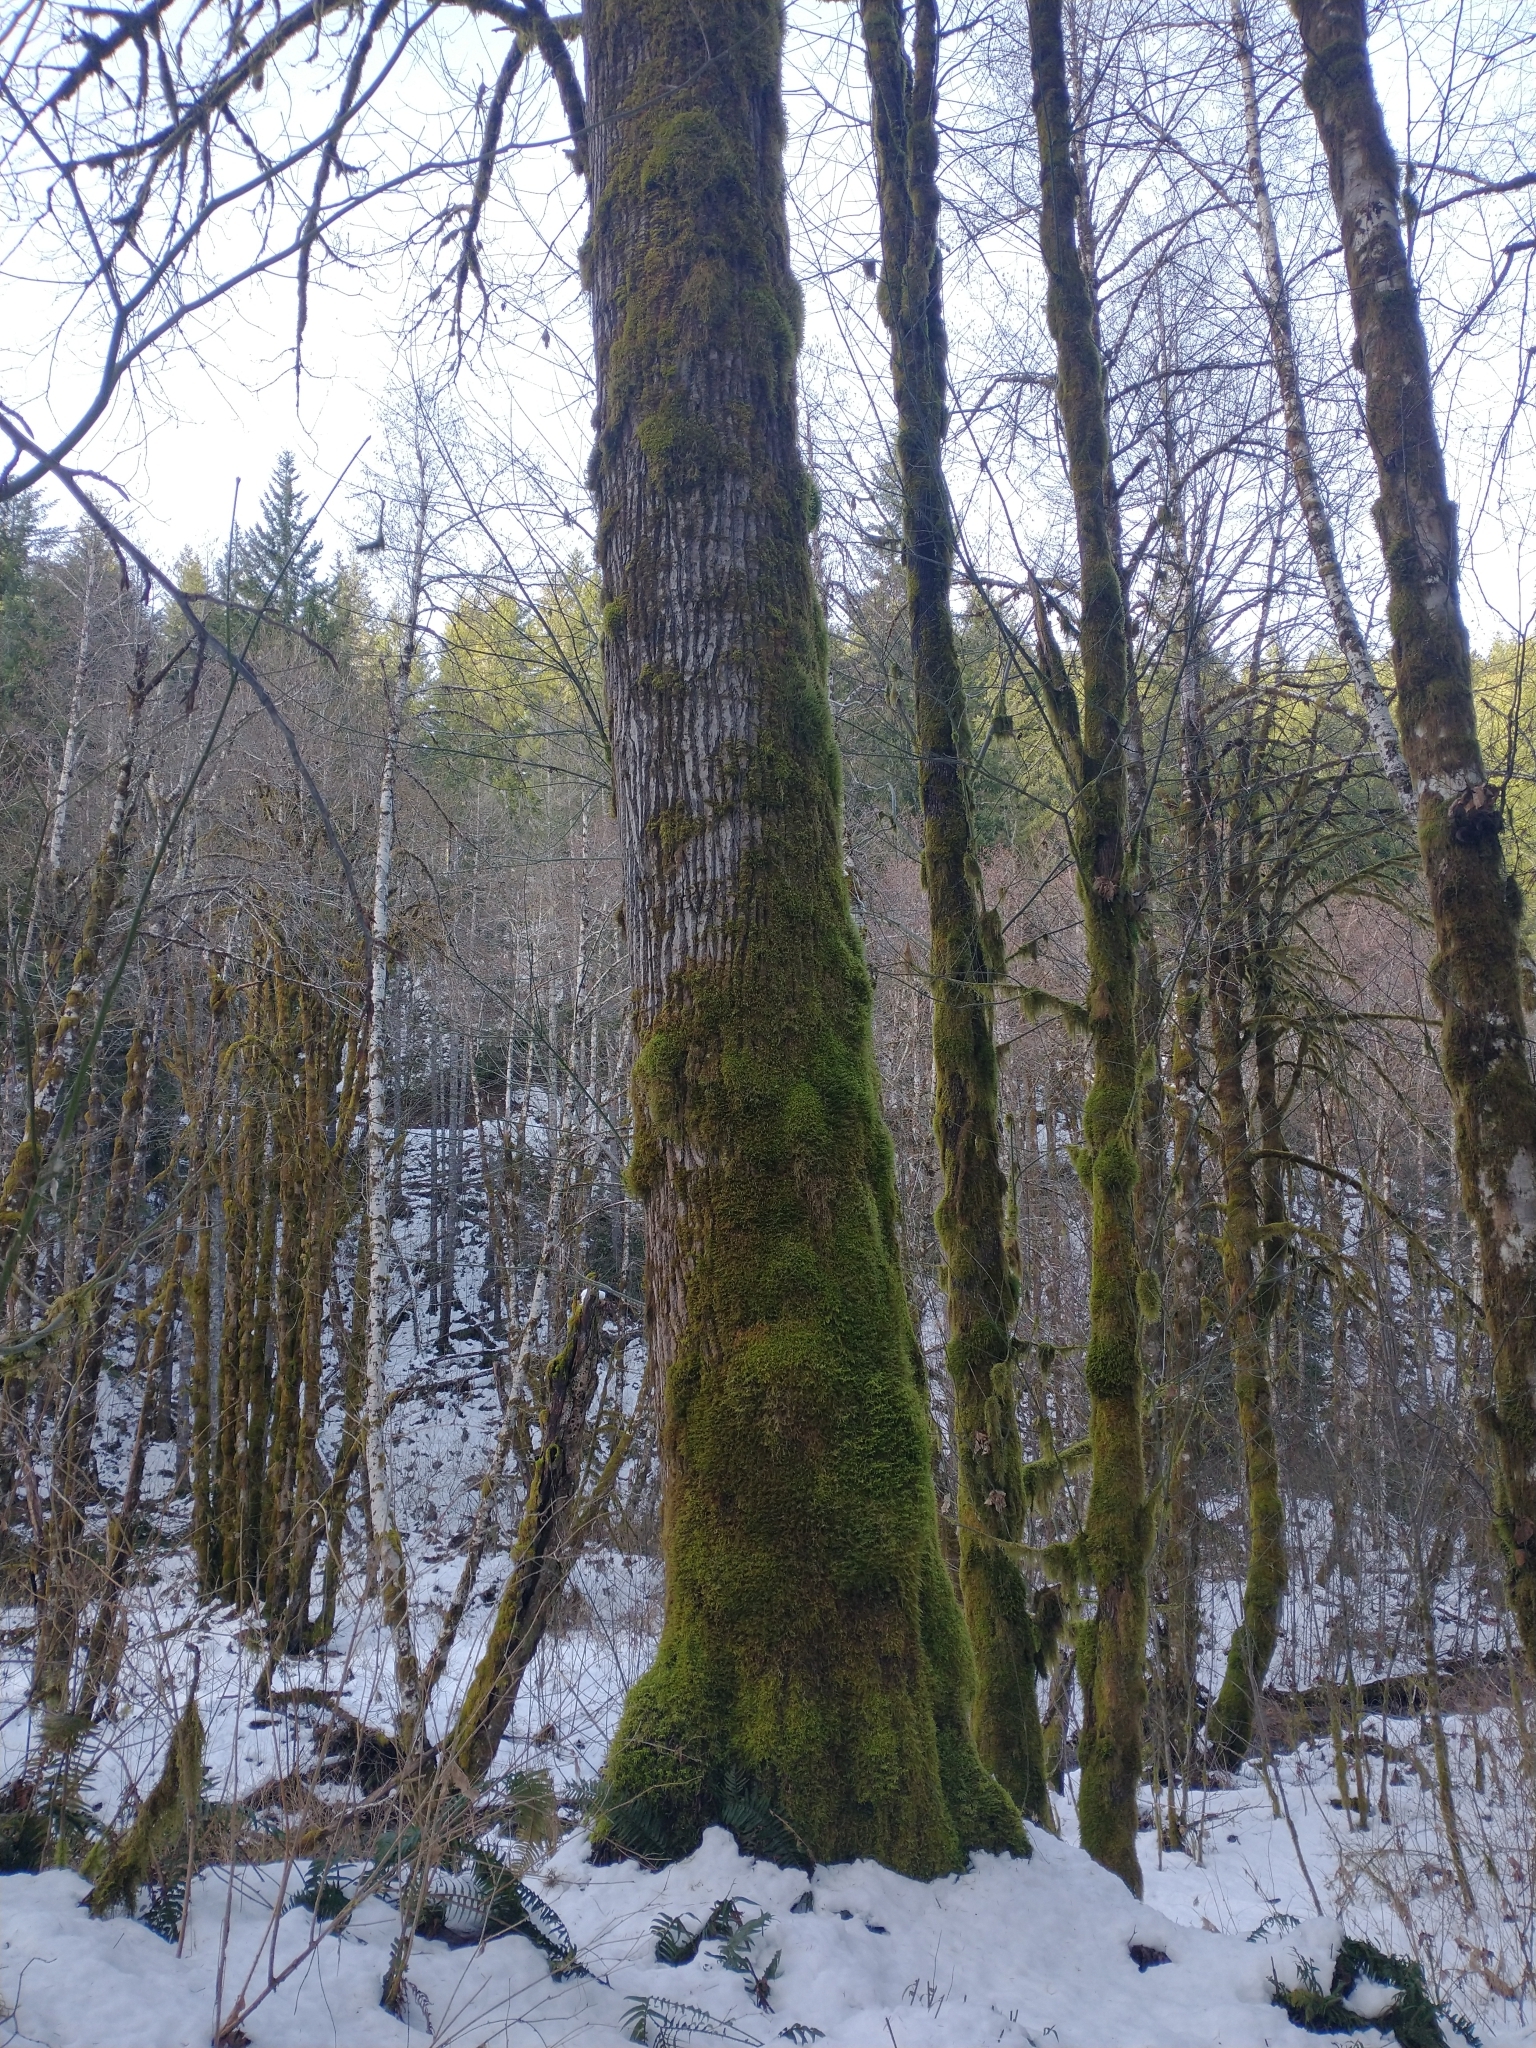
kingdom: Plantae
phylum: Tracheophyta
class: Magnoliopsida
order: Malpighiales
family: Salicaceae
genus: Populus
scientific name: Populus trichocarpa
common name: Black cottonwood
